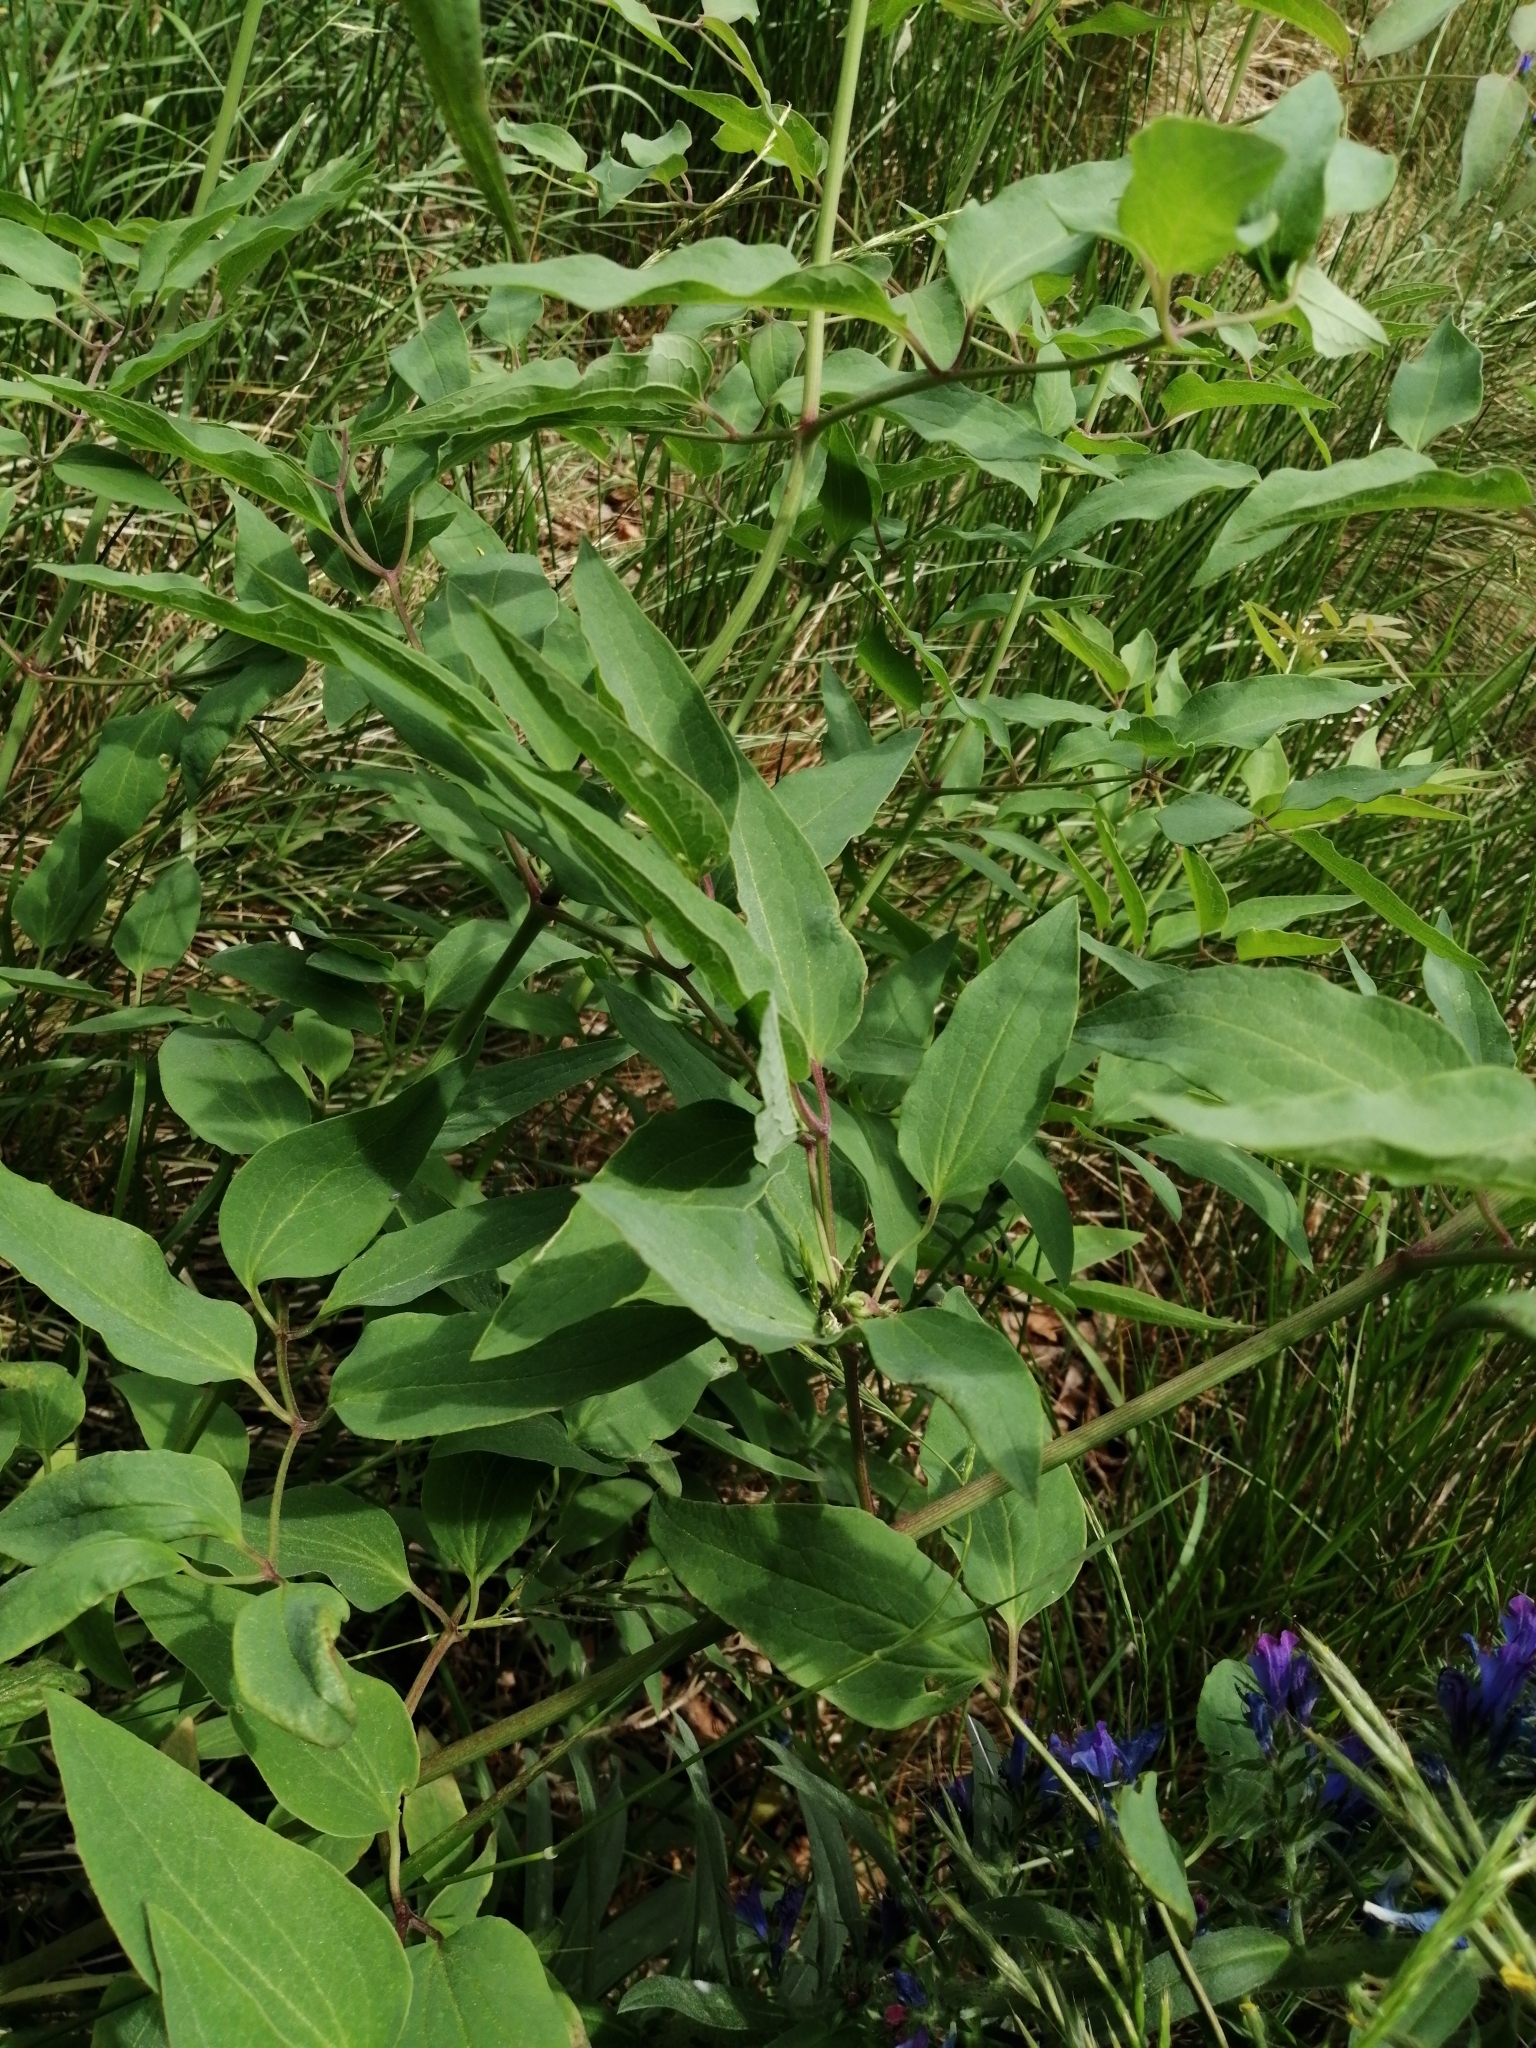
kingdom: Plantae
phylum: Tracheophyta
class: Magnoliopsida
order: Ranunculales
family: Ranunculaceae
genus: Clematis
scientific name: Clematis recta
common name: Ground clematis
